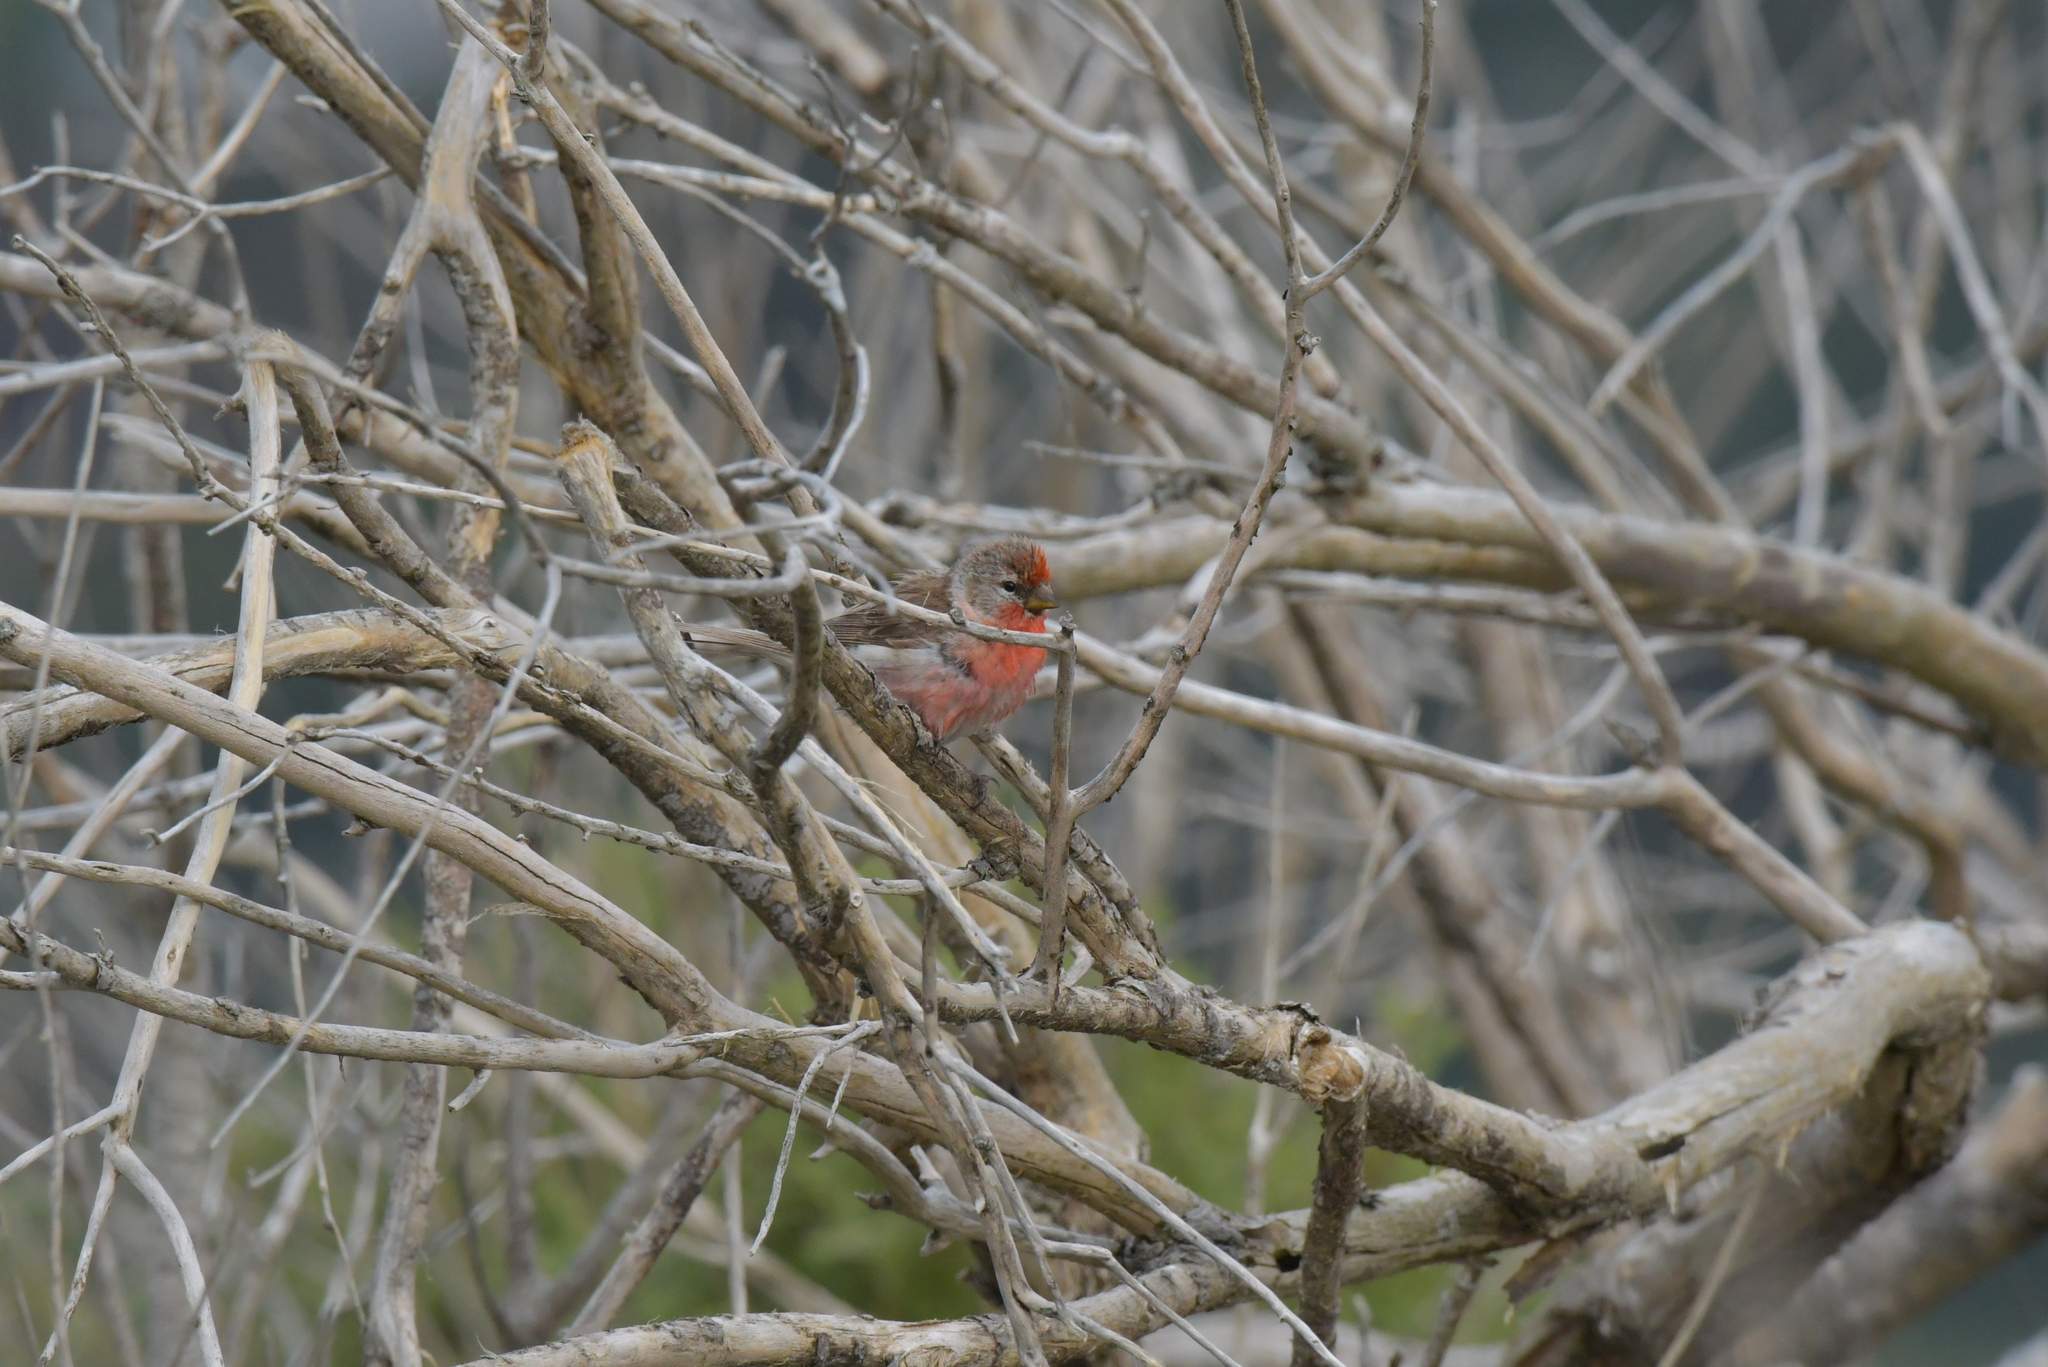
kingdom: Animalia
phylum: Chordata
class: Aves
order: Passeriformes
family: Fringillidae
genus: Acanthis
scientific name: Acanthis flammea
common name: Common redpoll
